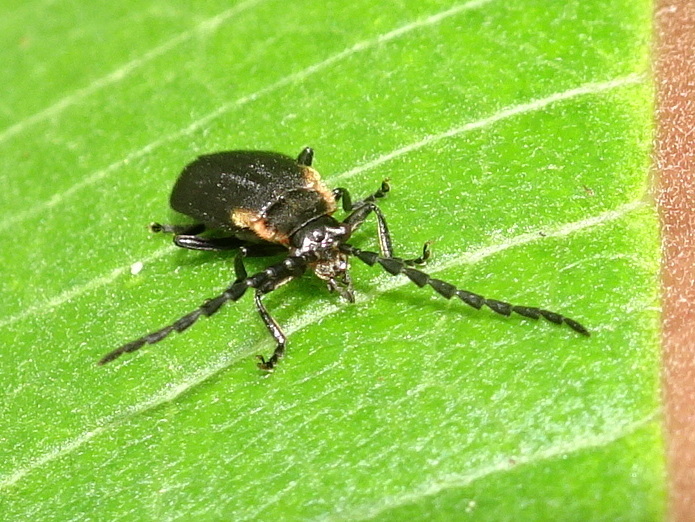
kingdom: Animalia
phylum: Arthropoda
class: Insecta
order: Coleoptera
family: Cantharidae
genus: Polemius
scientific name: Polemius laticornis
